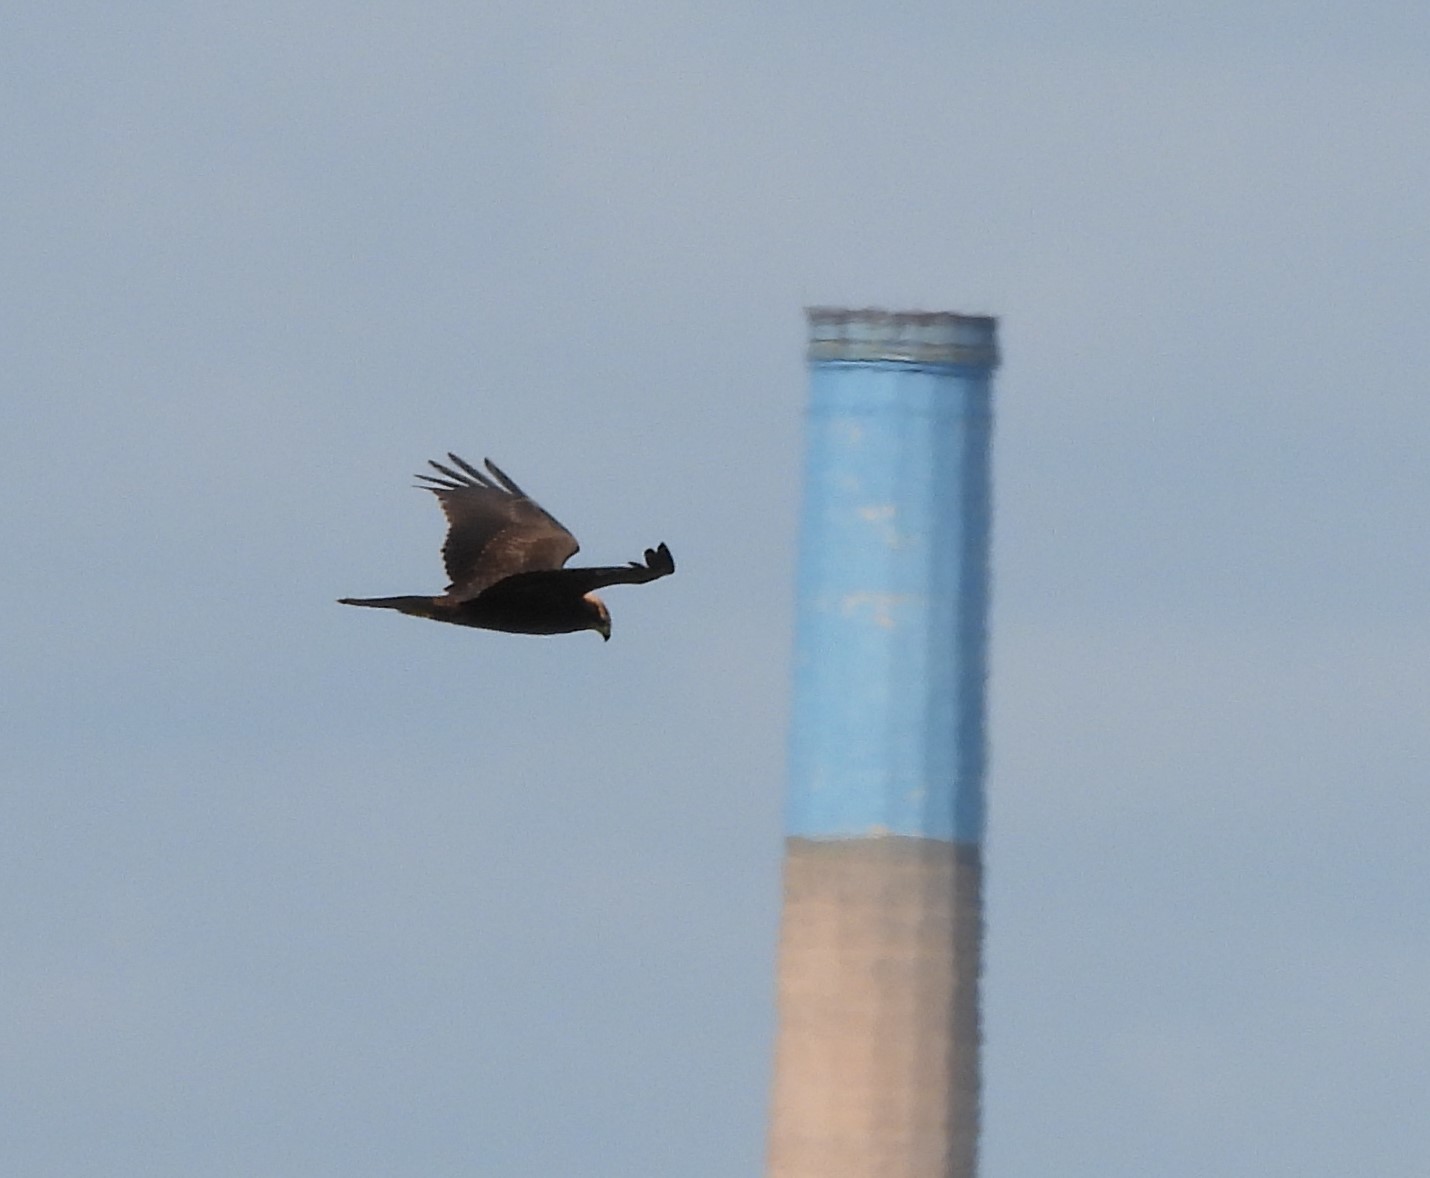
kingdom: Animalia
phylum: Chordata
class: Aves
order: Accipitriformes
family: Accipitridae
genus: Circus
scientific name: Circus aeruginosus
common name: Western marsh harrier
